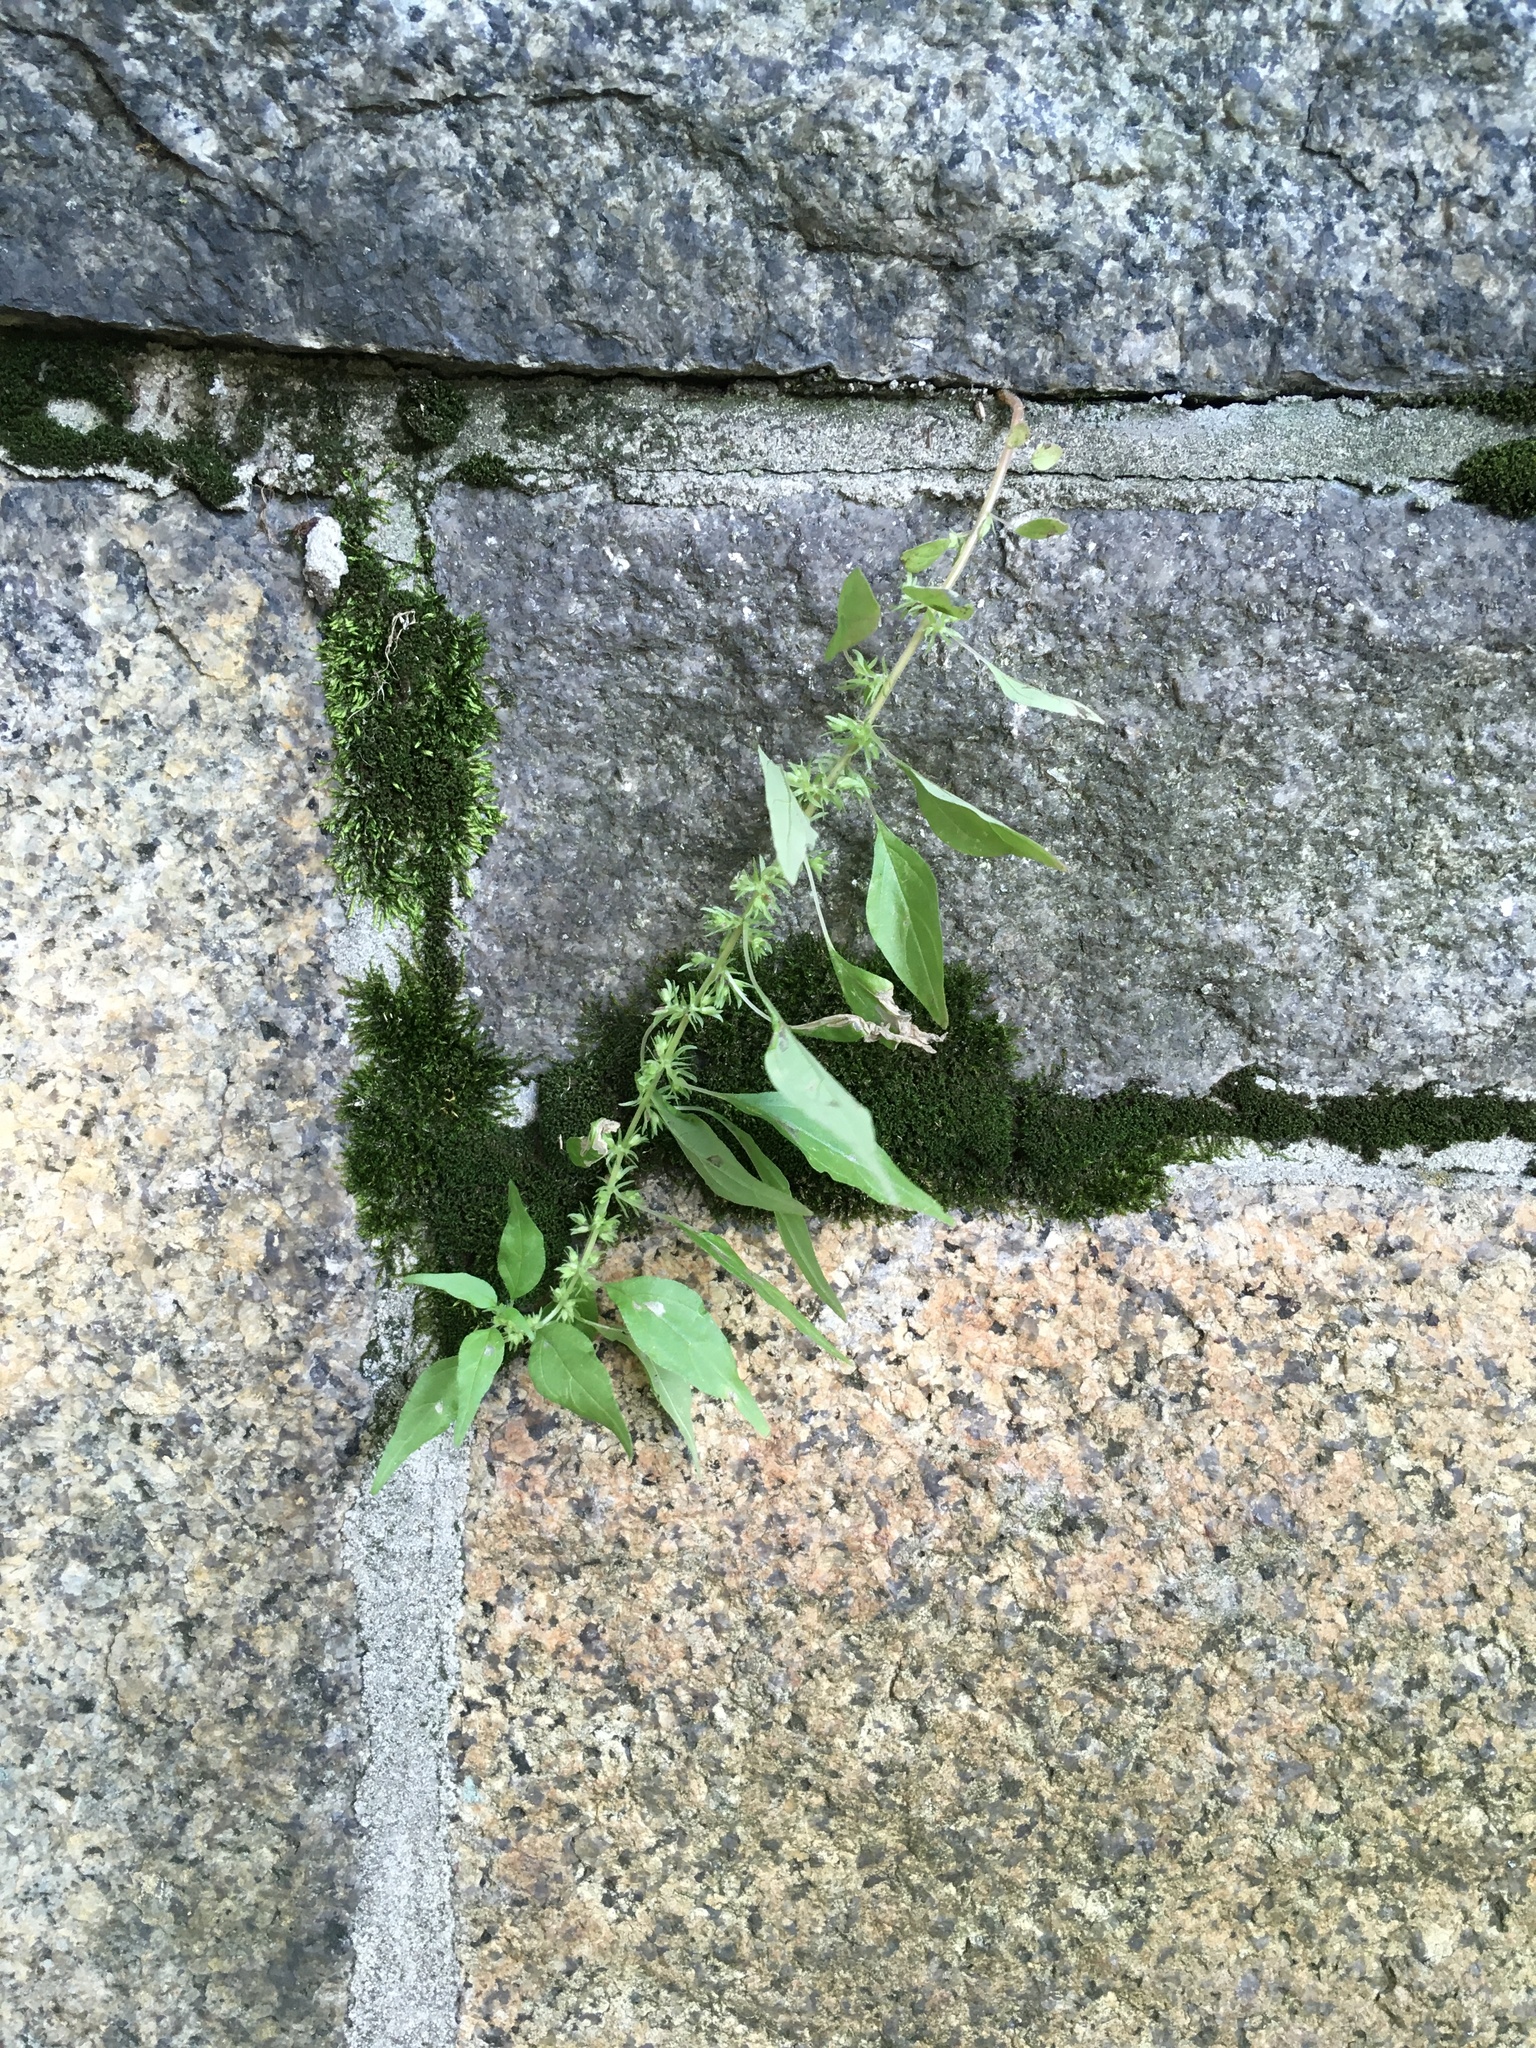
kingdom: Plantae
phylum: Tracheophyta
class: Magnoliopsida
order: Rosales
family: Urticaceae
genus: Parietaria
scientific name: Parietaria pensylvanica
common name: Pennsylvania pellitory
